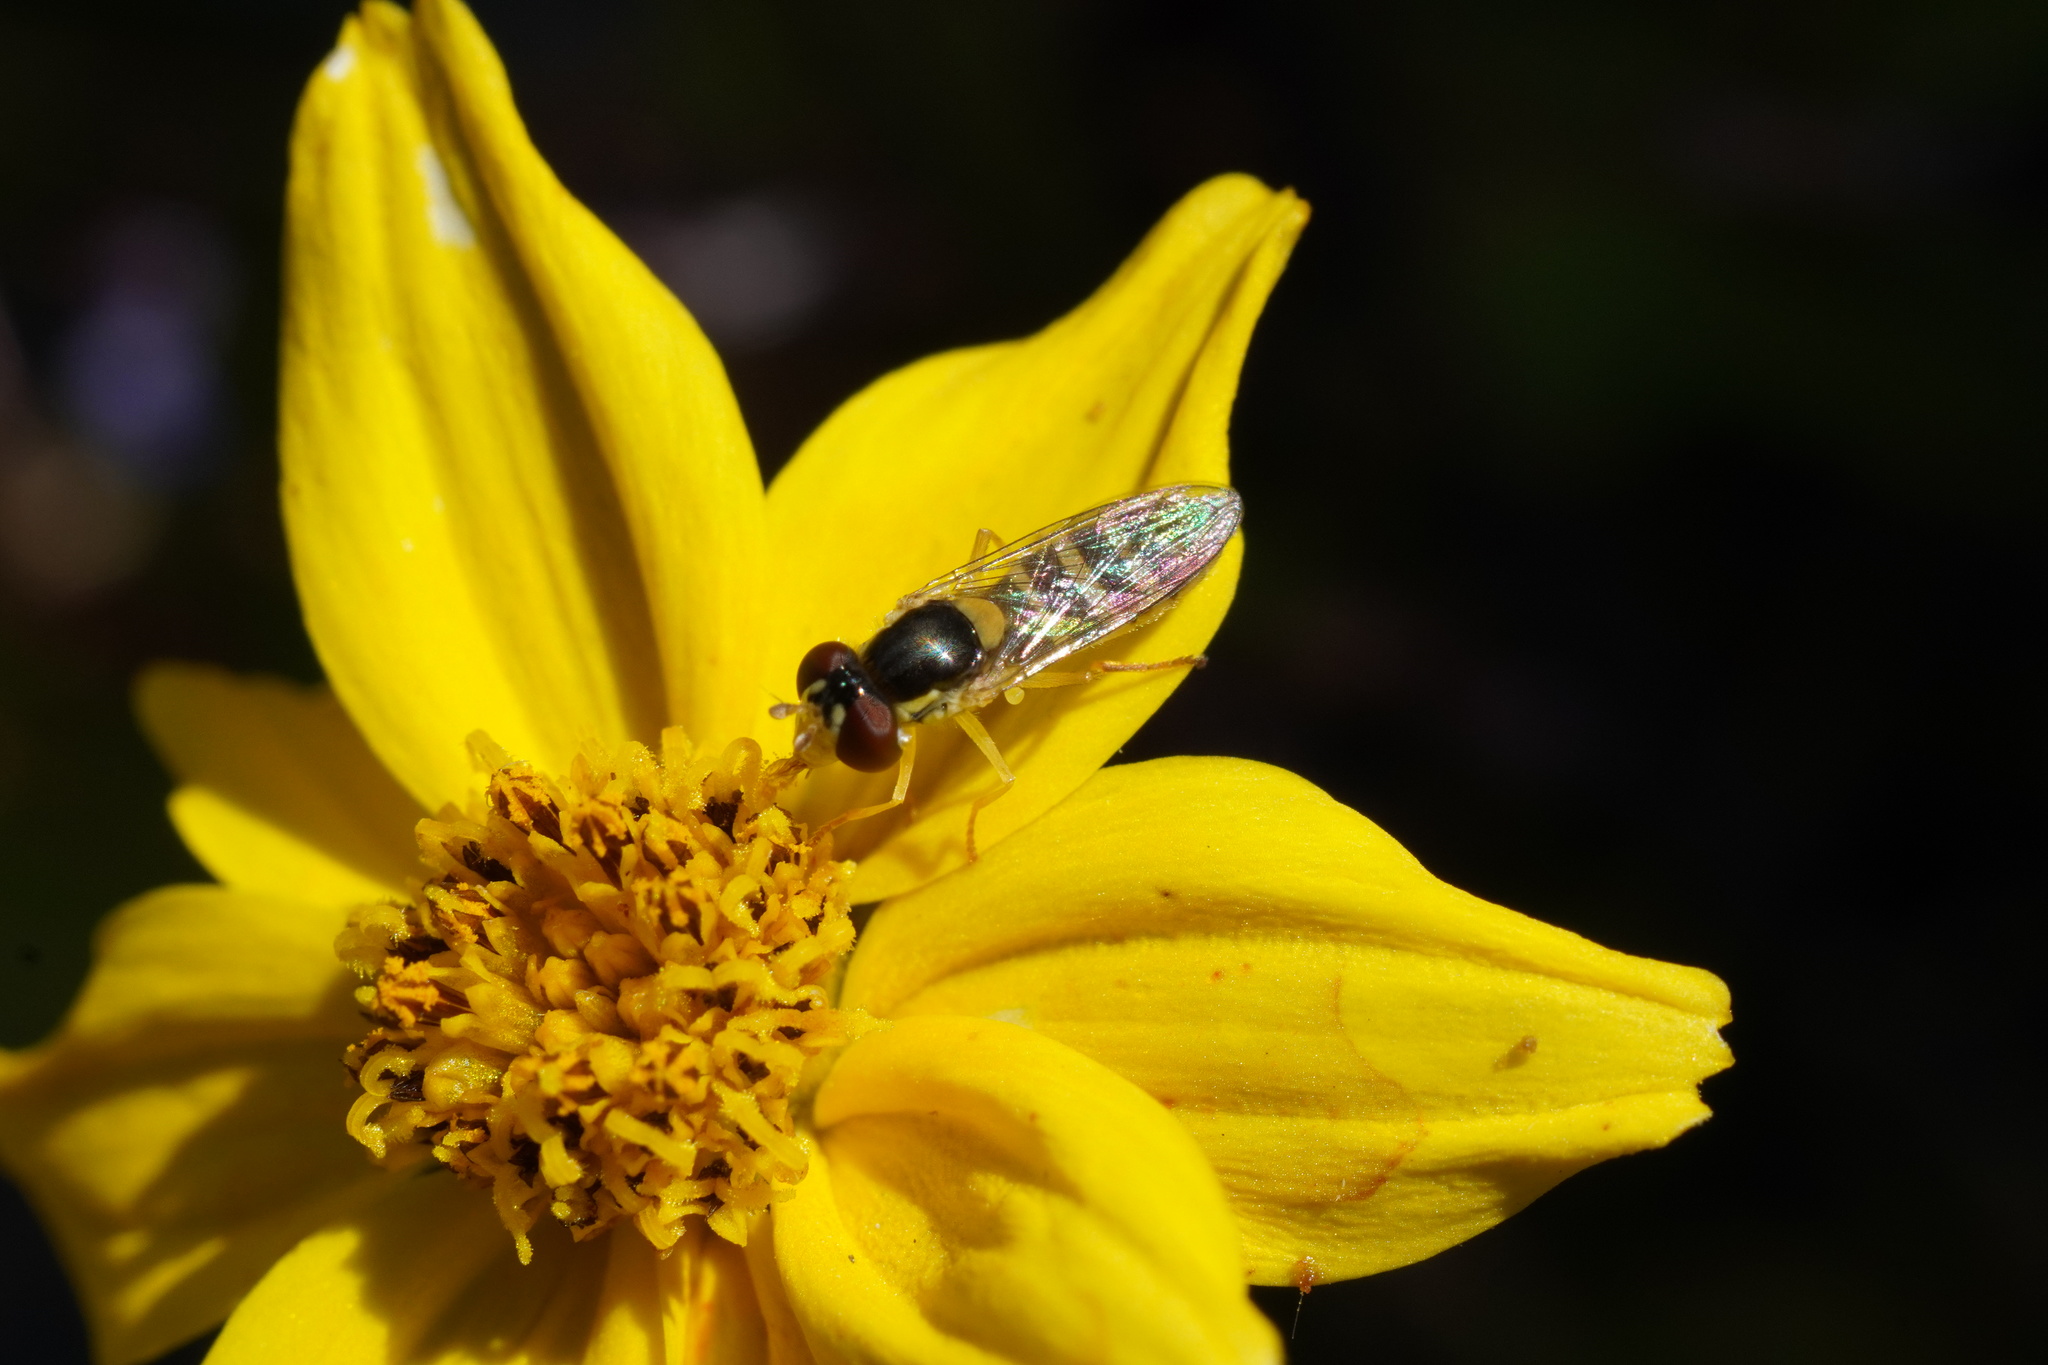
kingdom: Animalia
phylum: Arthropoda
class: Insecta
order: Diptera
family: Syrphidae
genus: Sphaerophoria
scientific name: Sphaerophoria sulphuripes
